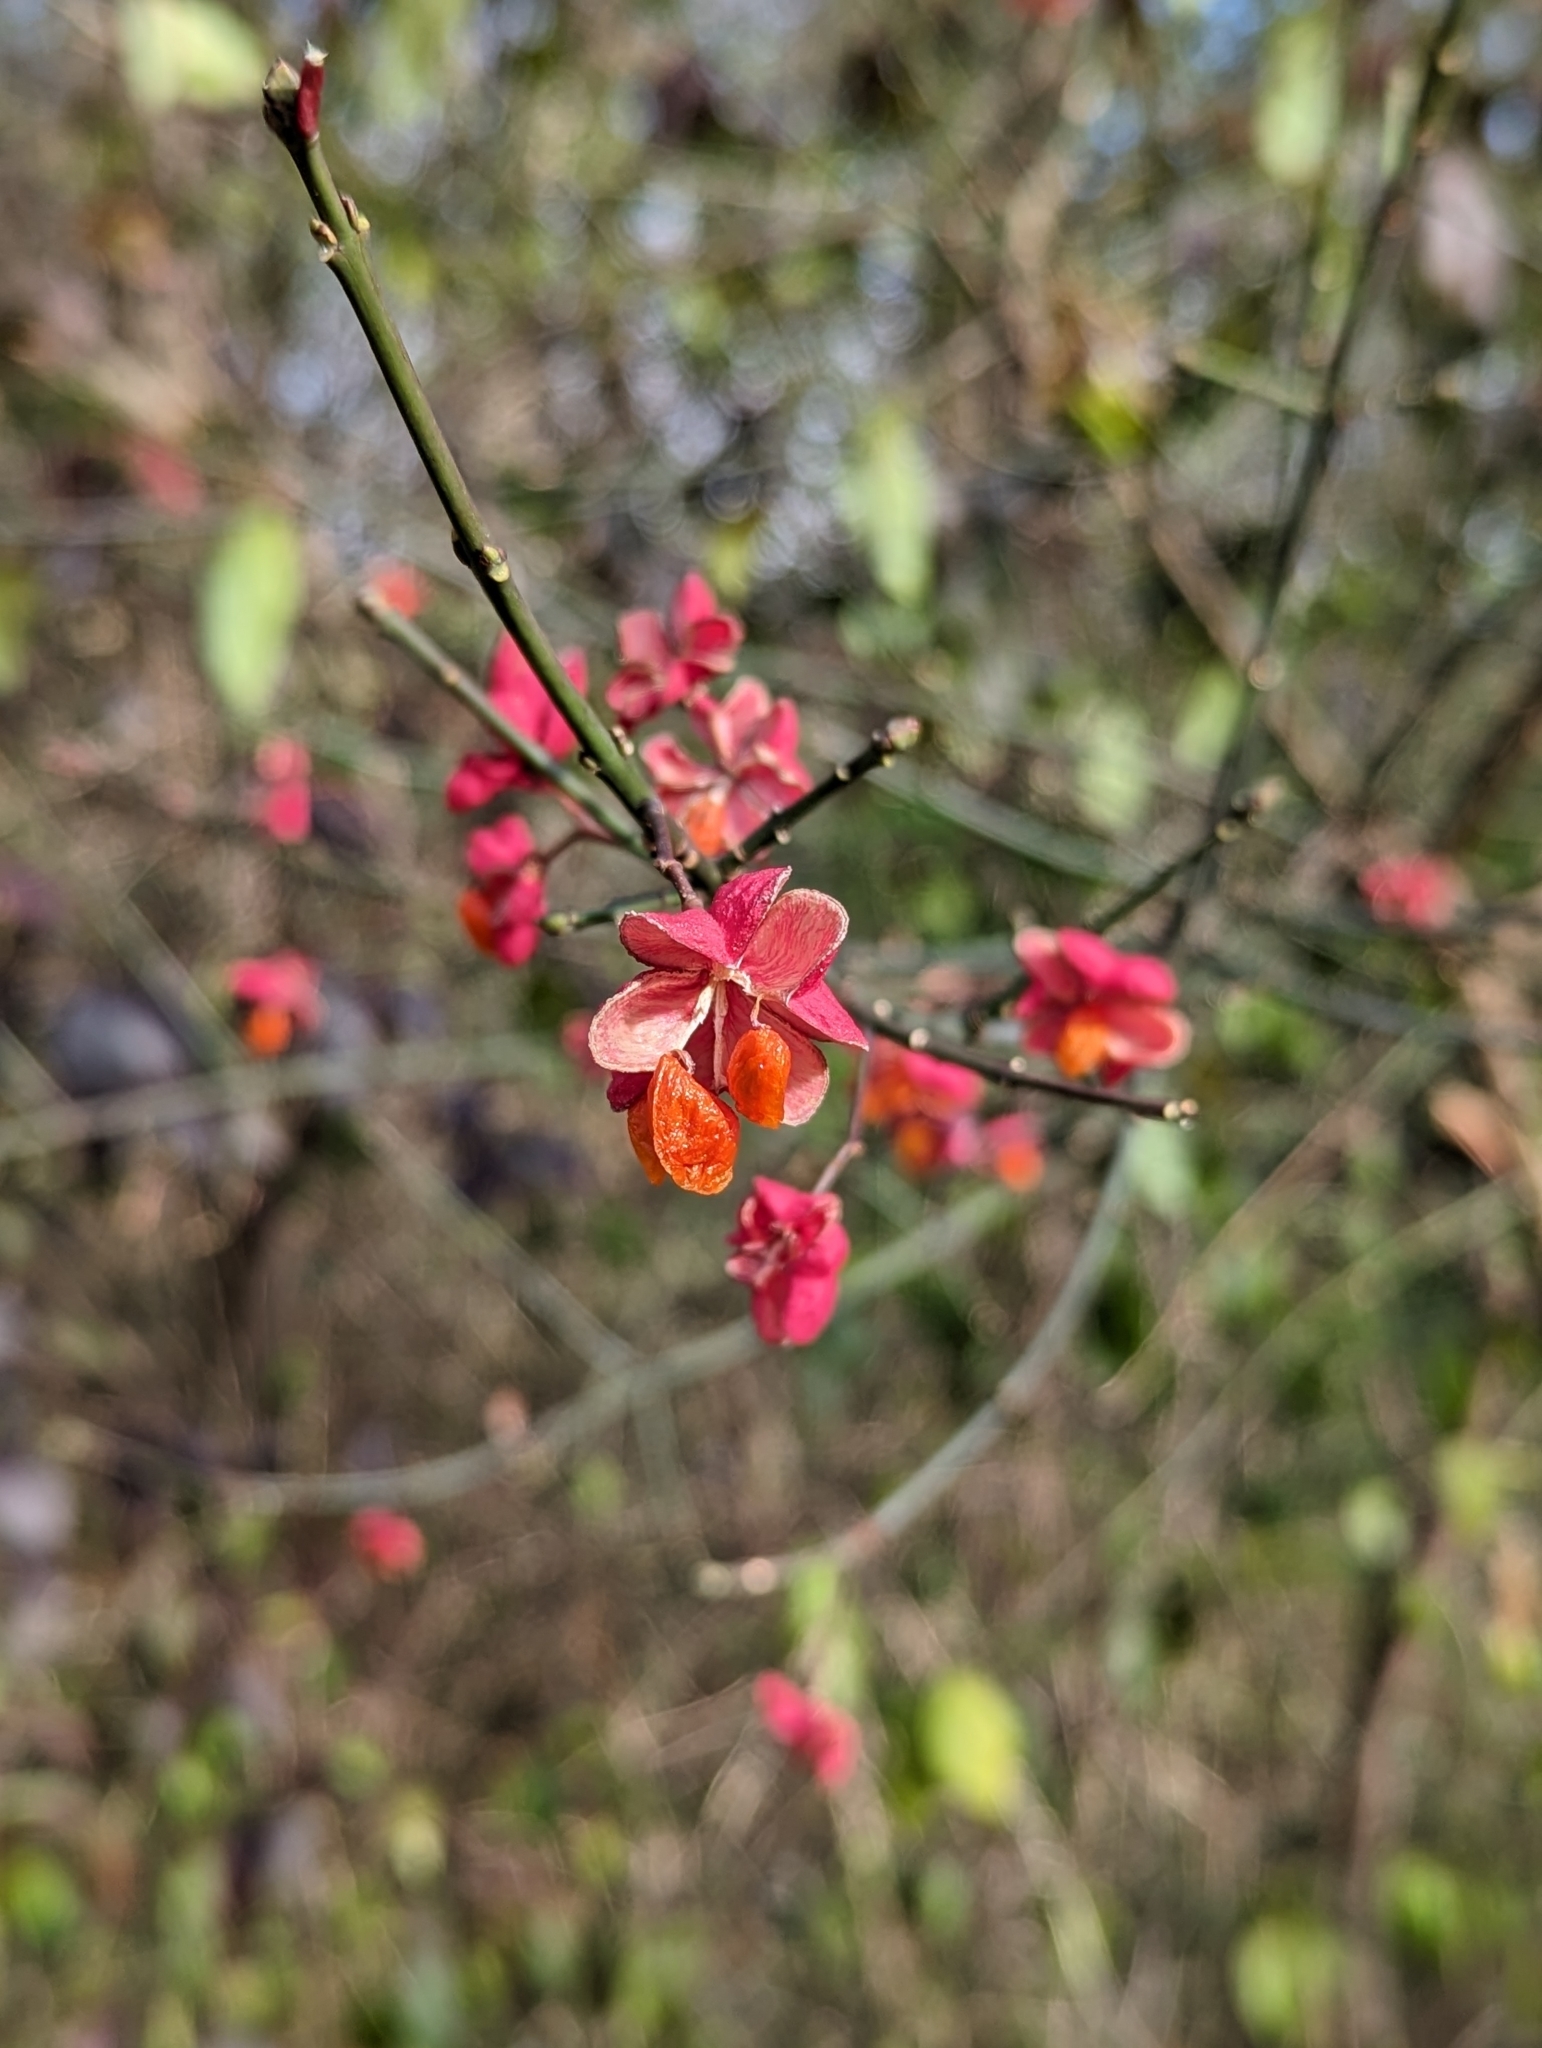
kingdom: Plantae
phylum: Tracheophyta
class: Magnoliopsida
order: Celastrales
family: Celastraceae
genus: Euonymus
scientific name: Euonymus europaeus
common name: Spindle
